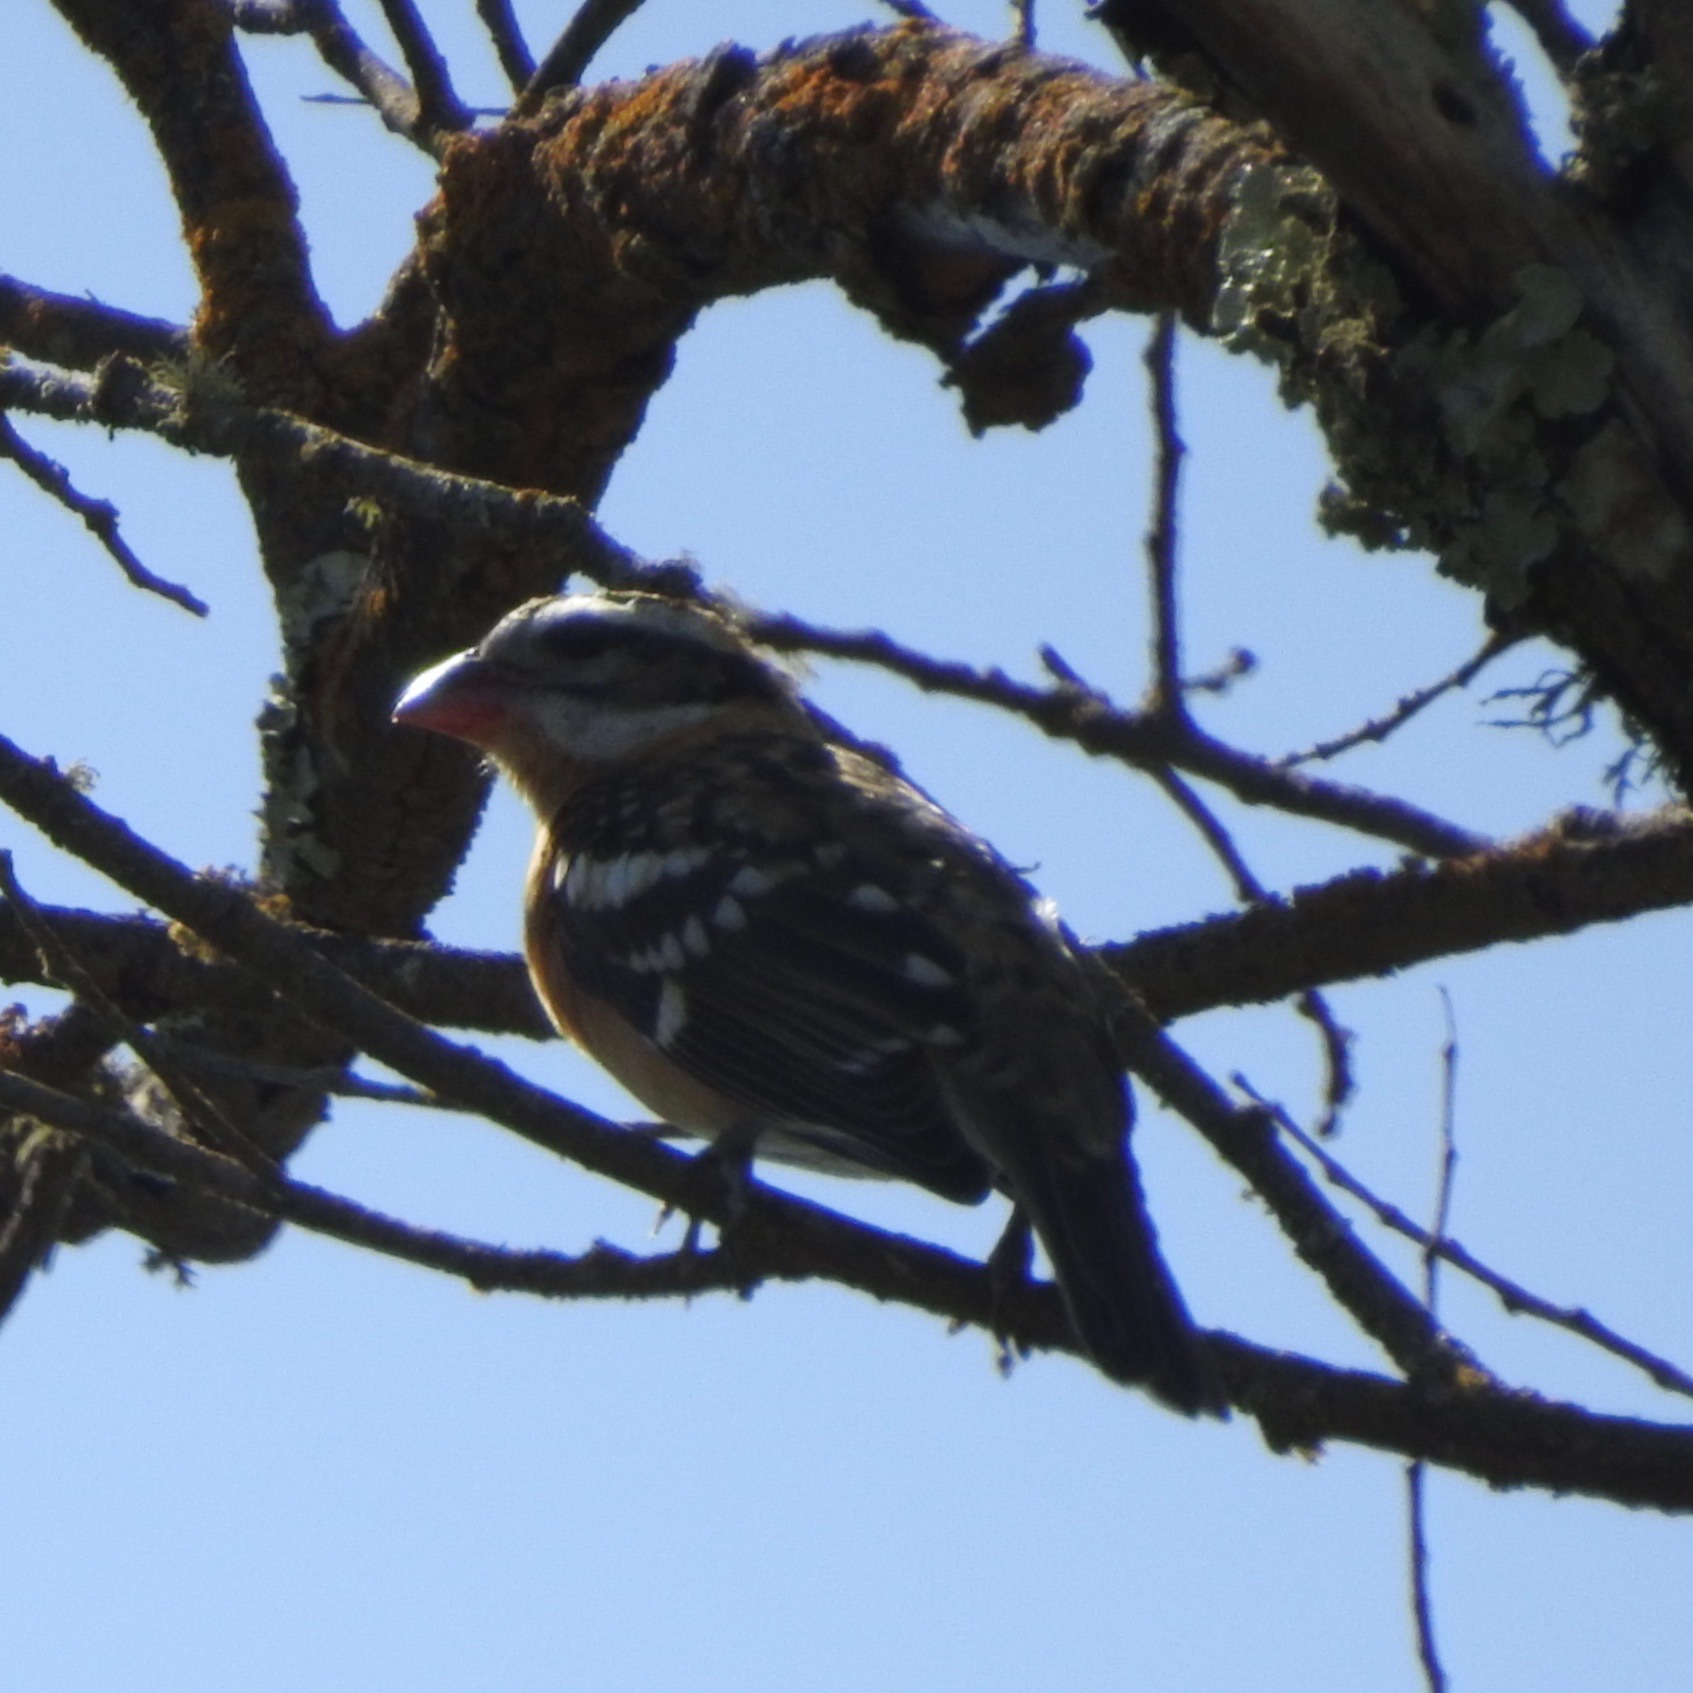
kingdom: Animalia
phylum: Chordata
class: Aves
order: Passeriformes
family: Cardinalidae
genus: Pheucticus
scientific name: Pheucticus melanocephalus
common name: Black-headed grosbeak
